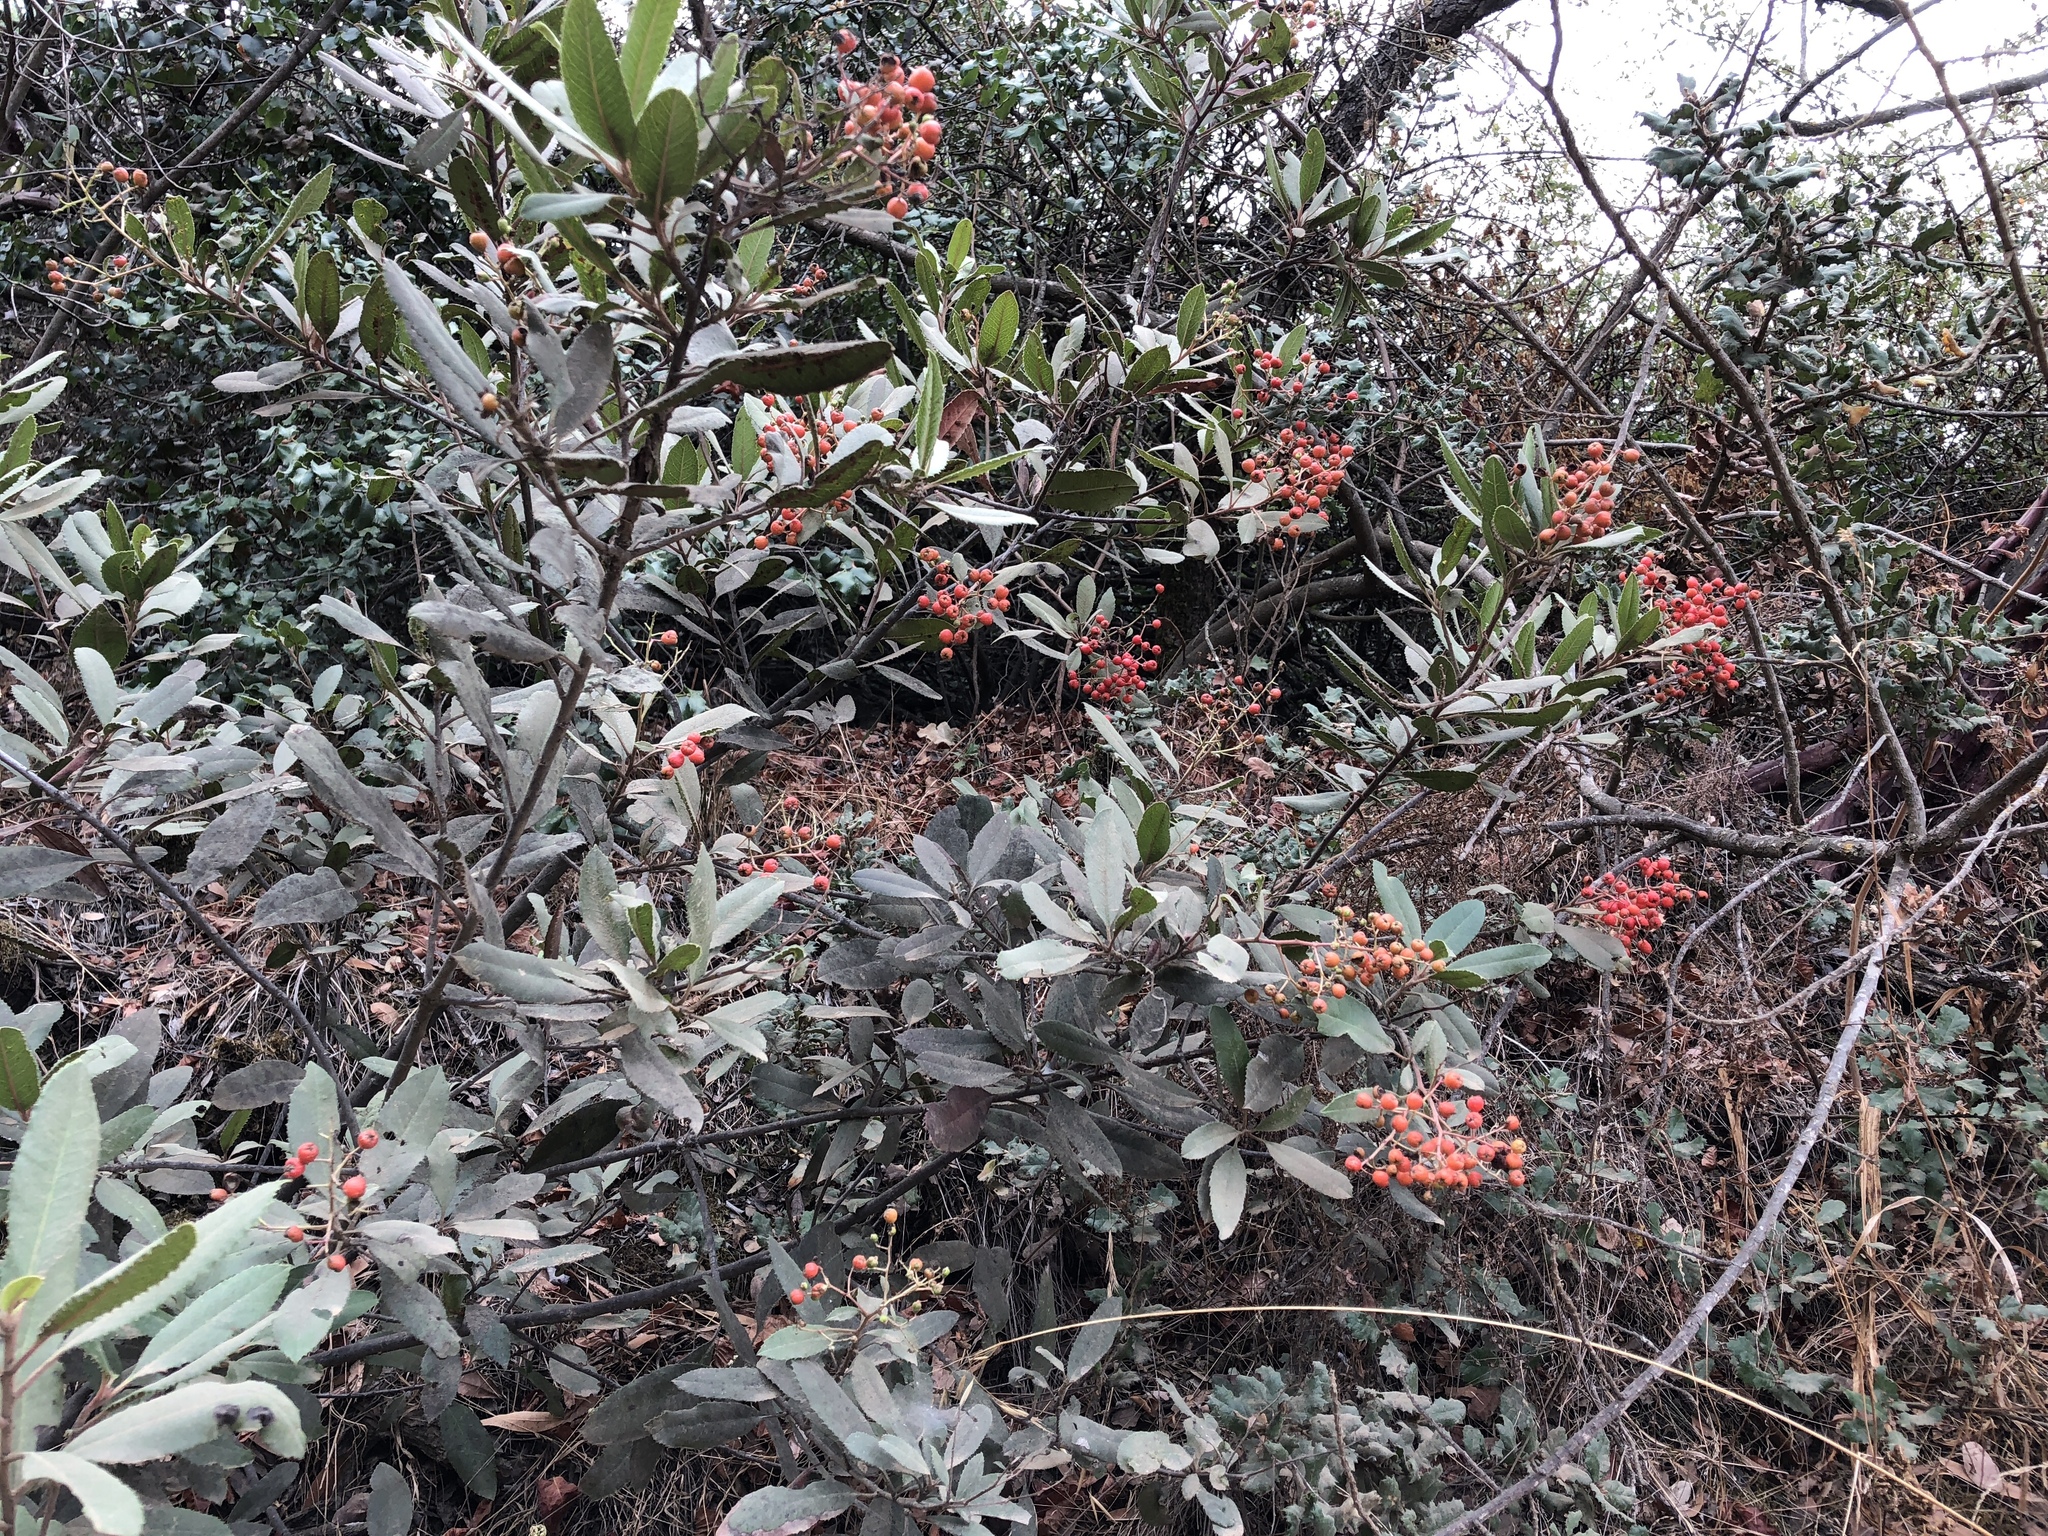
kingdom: Plantae
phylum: Tracheophyta
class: Magnoliopsida
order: Rosales
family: Rosaceae
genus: Heteromeles
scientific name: Heteromeles arbutifolia
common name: California-holly
